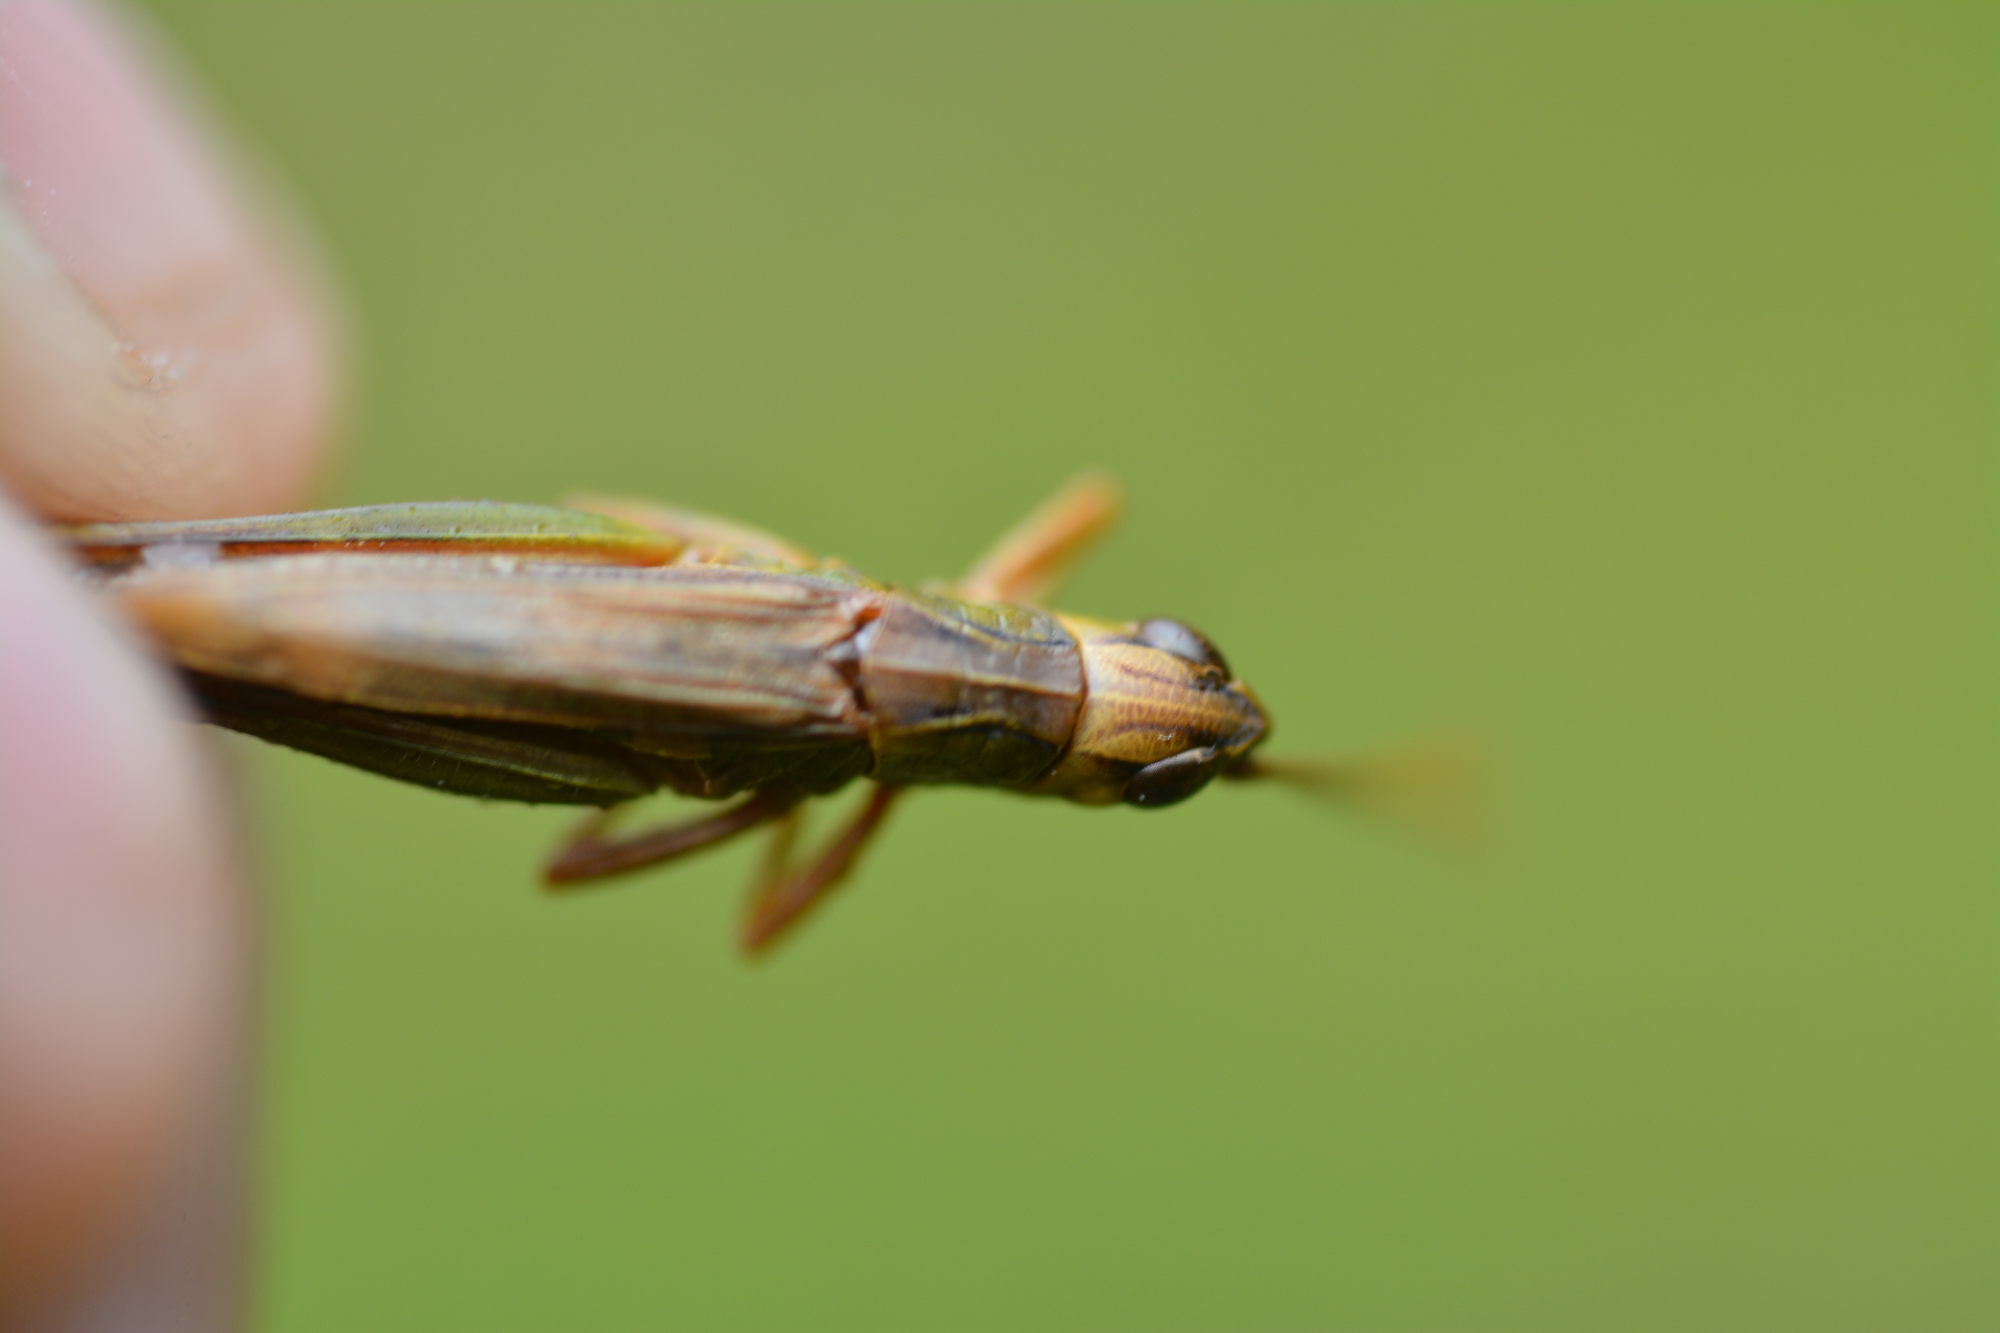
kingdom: Animalia
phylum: Arthropoda
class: Insecta
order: Orthoptera
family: Acrididae
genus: Pseudochorthippus
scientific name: Pseudochorthippus parallelus
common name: Meadow grasshopper
